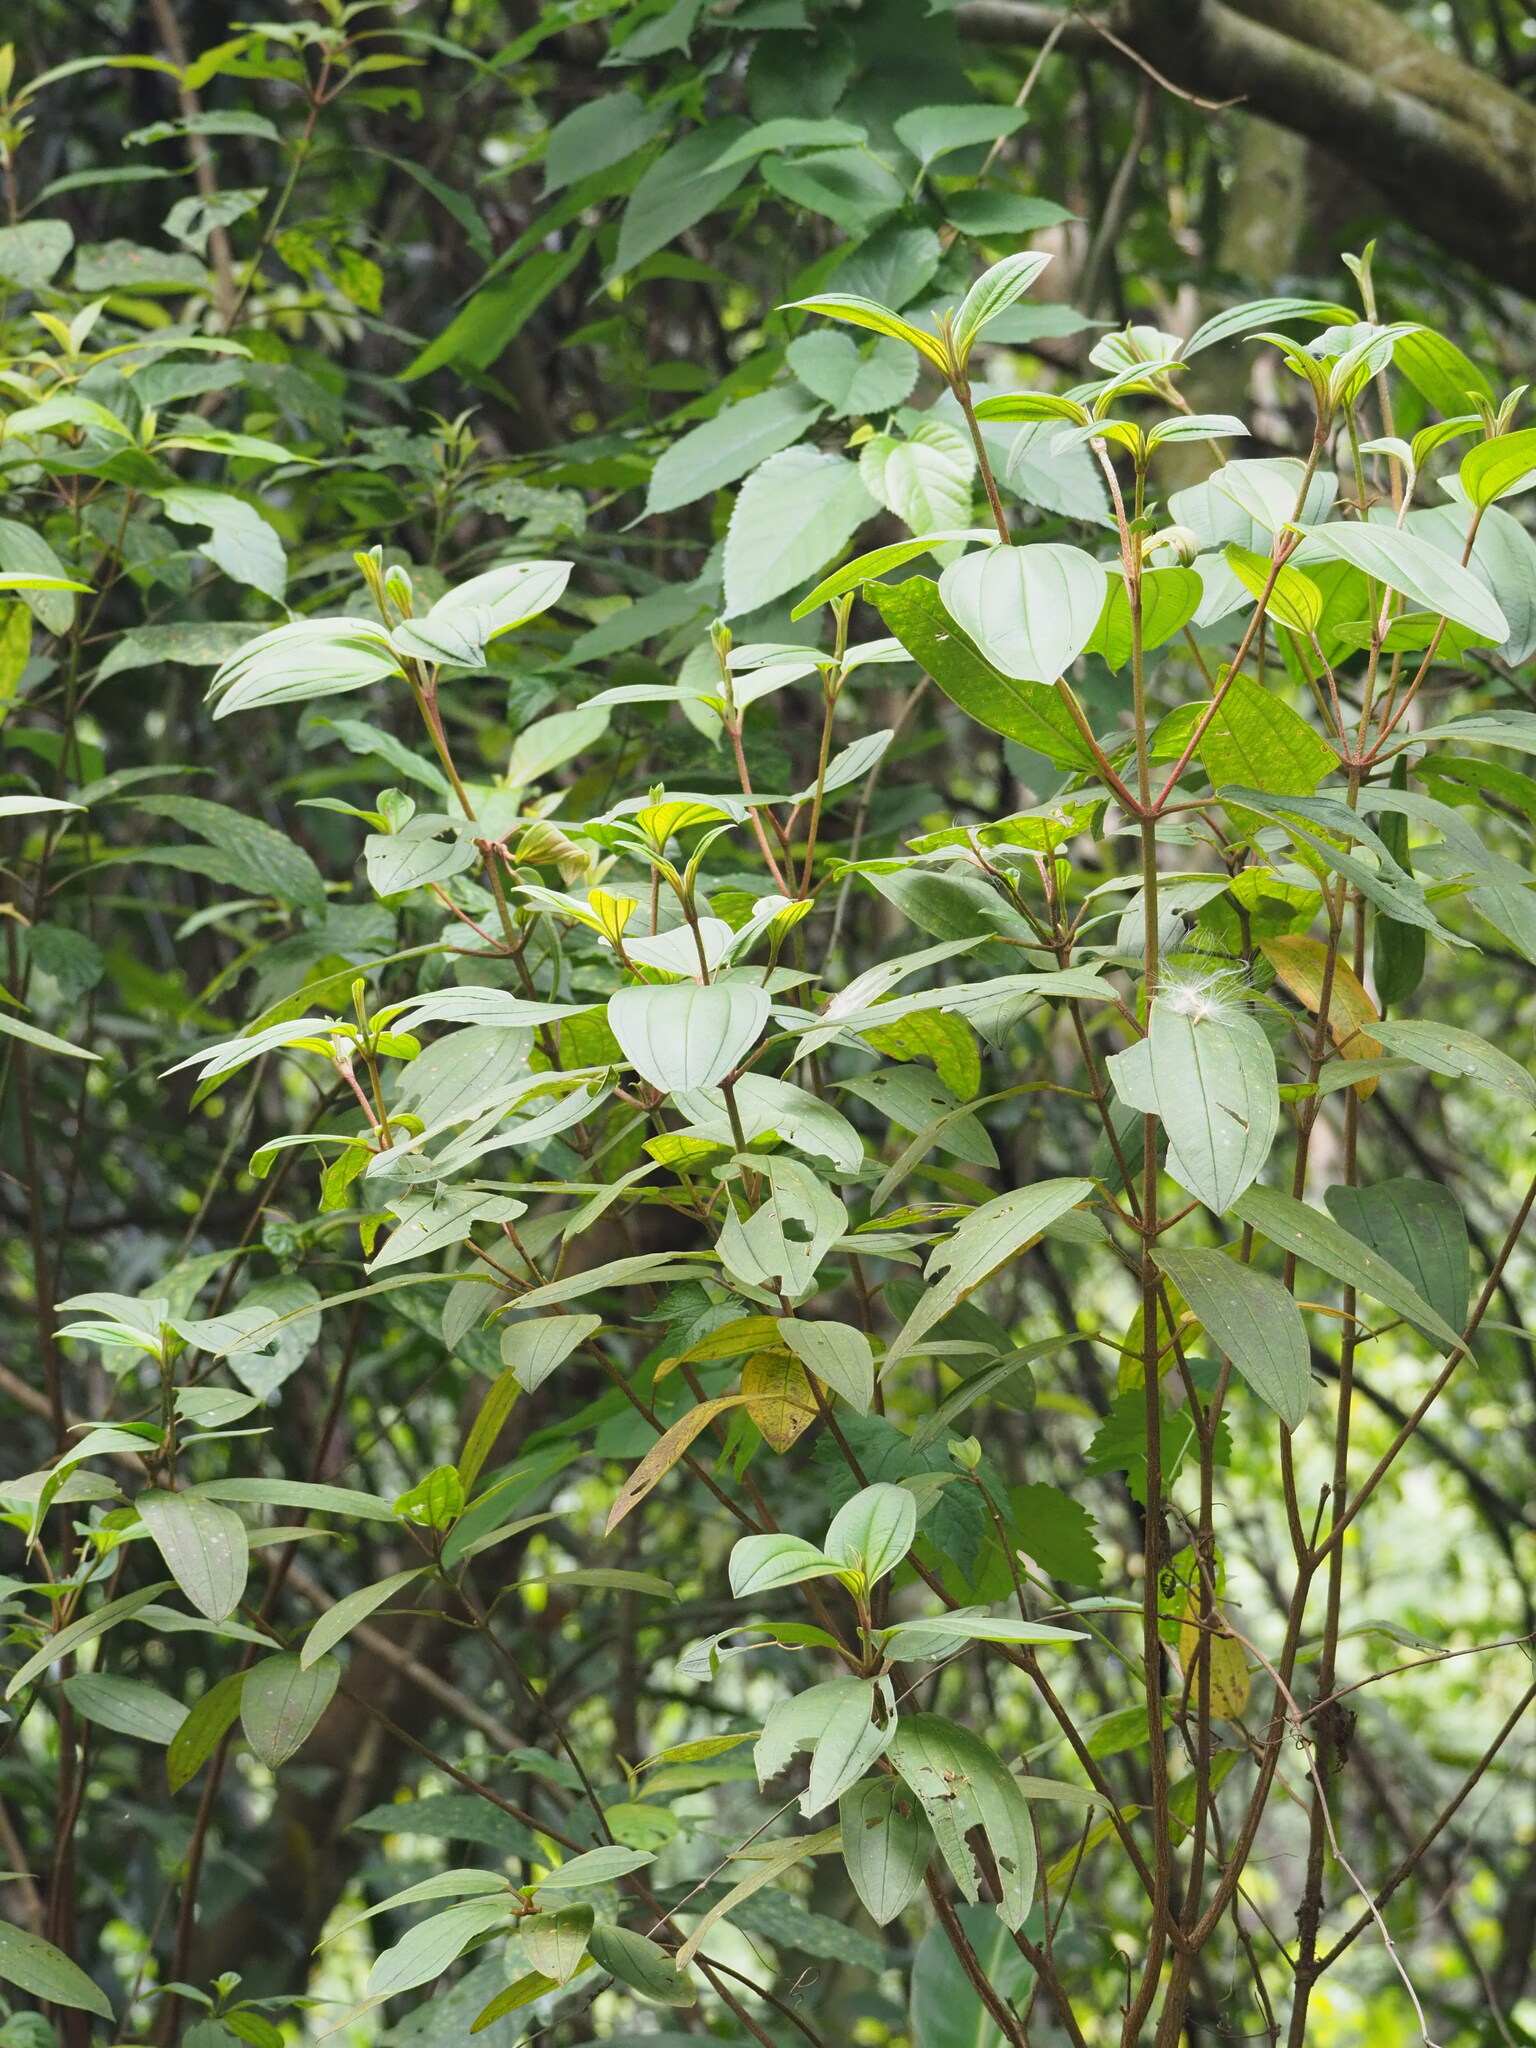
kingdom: Plantae
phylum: Tracheophyta
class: Magnoliopsida
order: Myrtales
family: Melastomataceae
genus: Melastoma
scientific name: Melastoma malabathricum
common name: Indian-rhododendron
